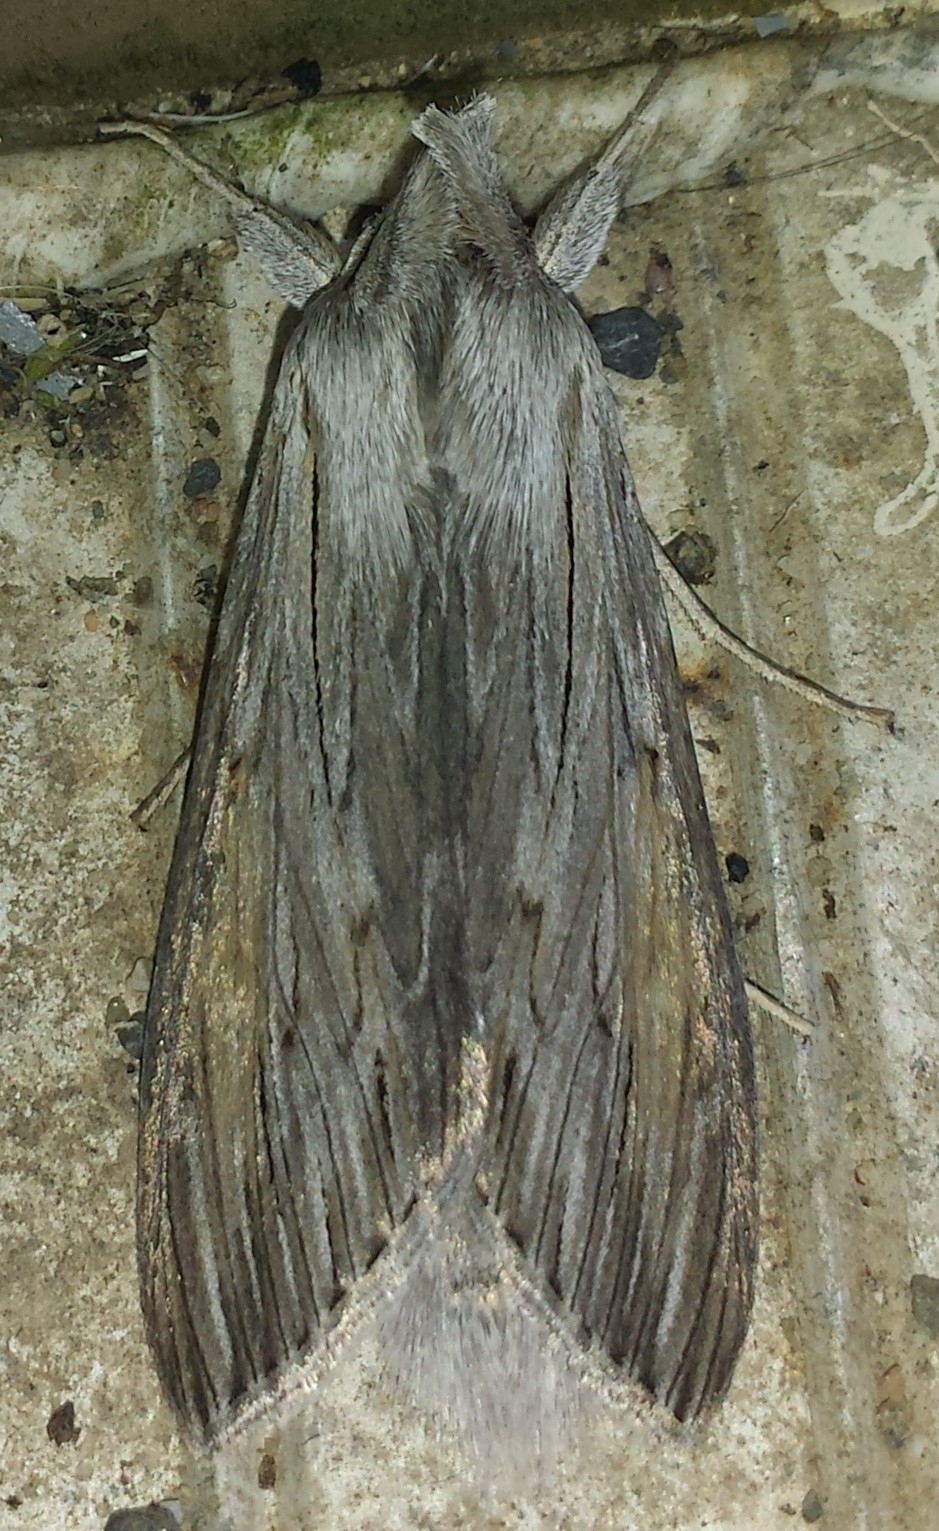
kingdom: Animalia
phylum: Arthropoda
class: Insecta
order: Lepidoptera
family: Noctuidae
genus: Cucullia
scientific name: Cucullia intermedia
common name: Goldenrod cutworm
